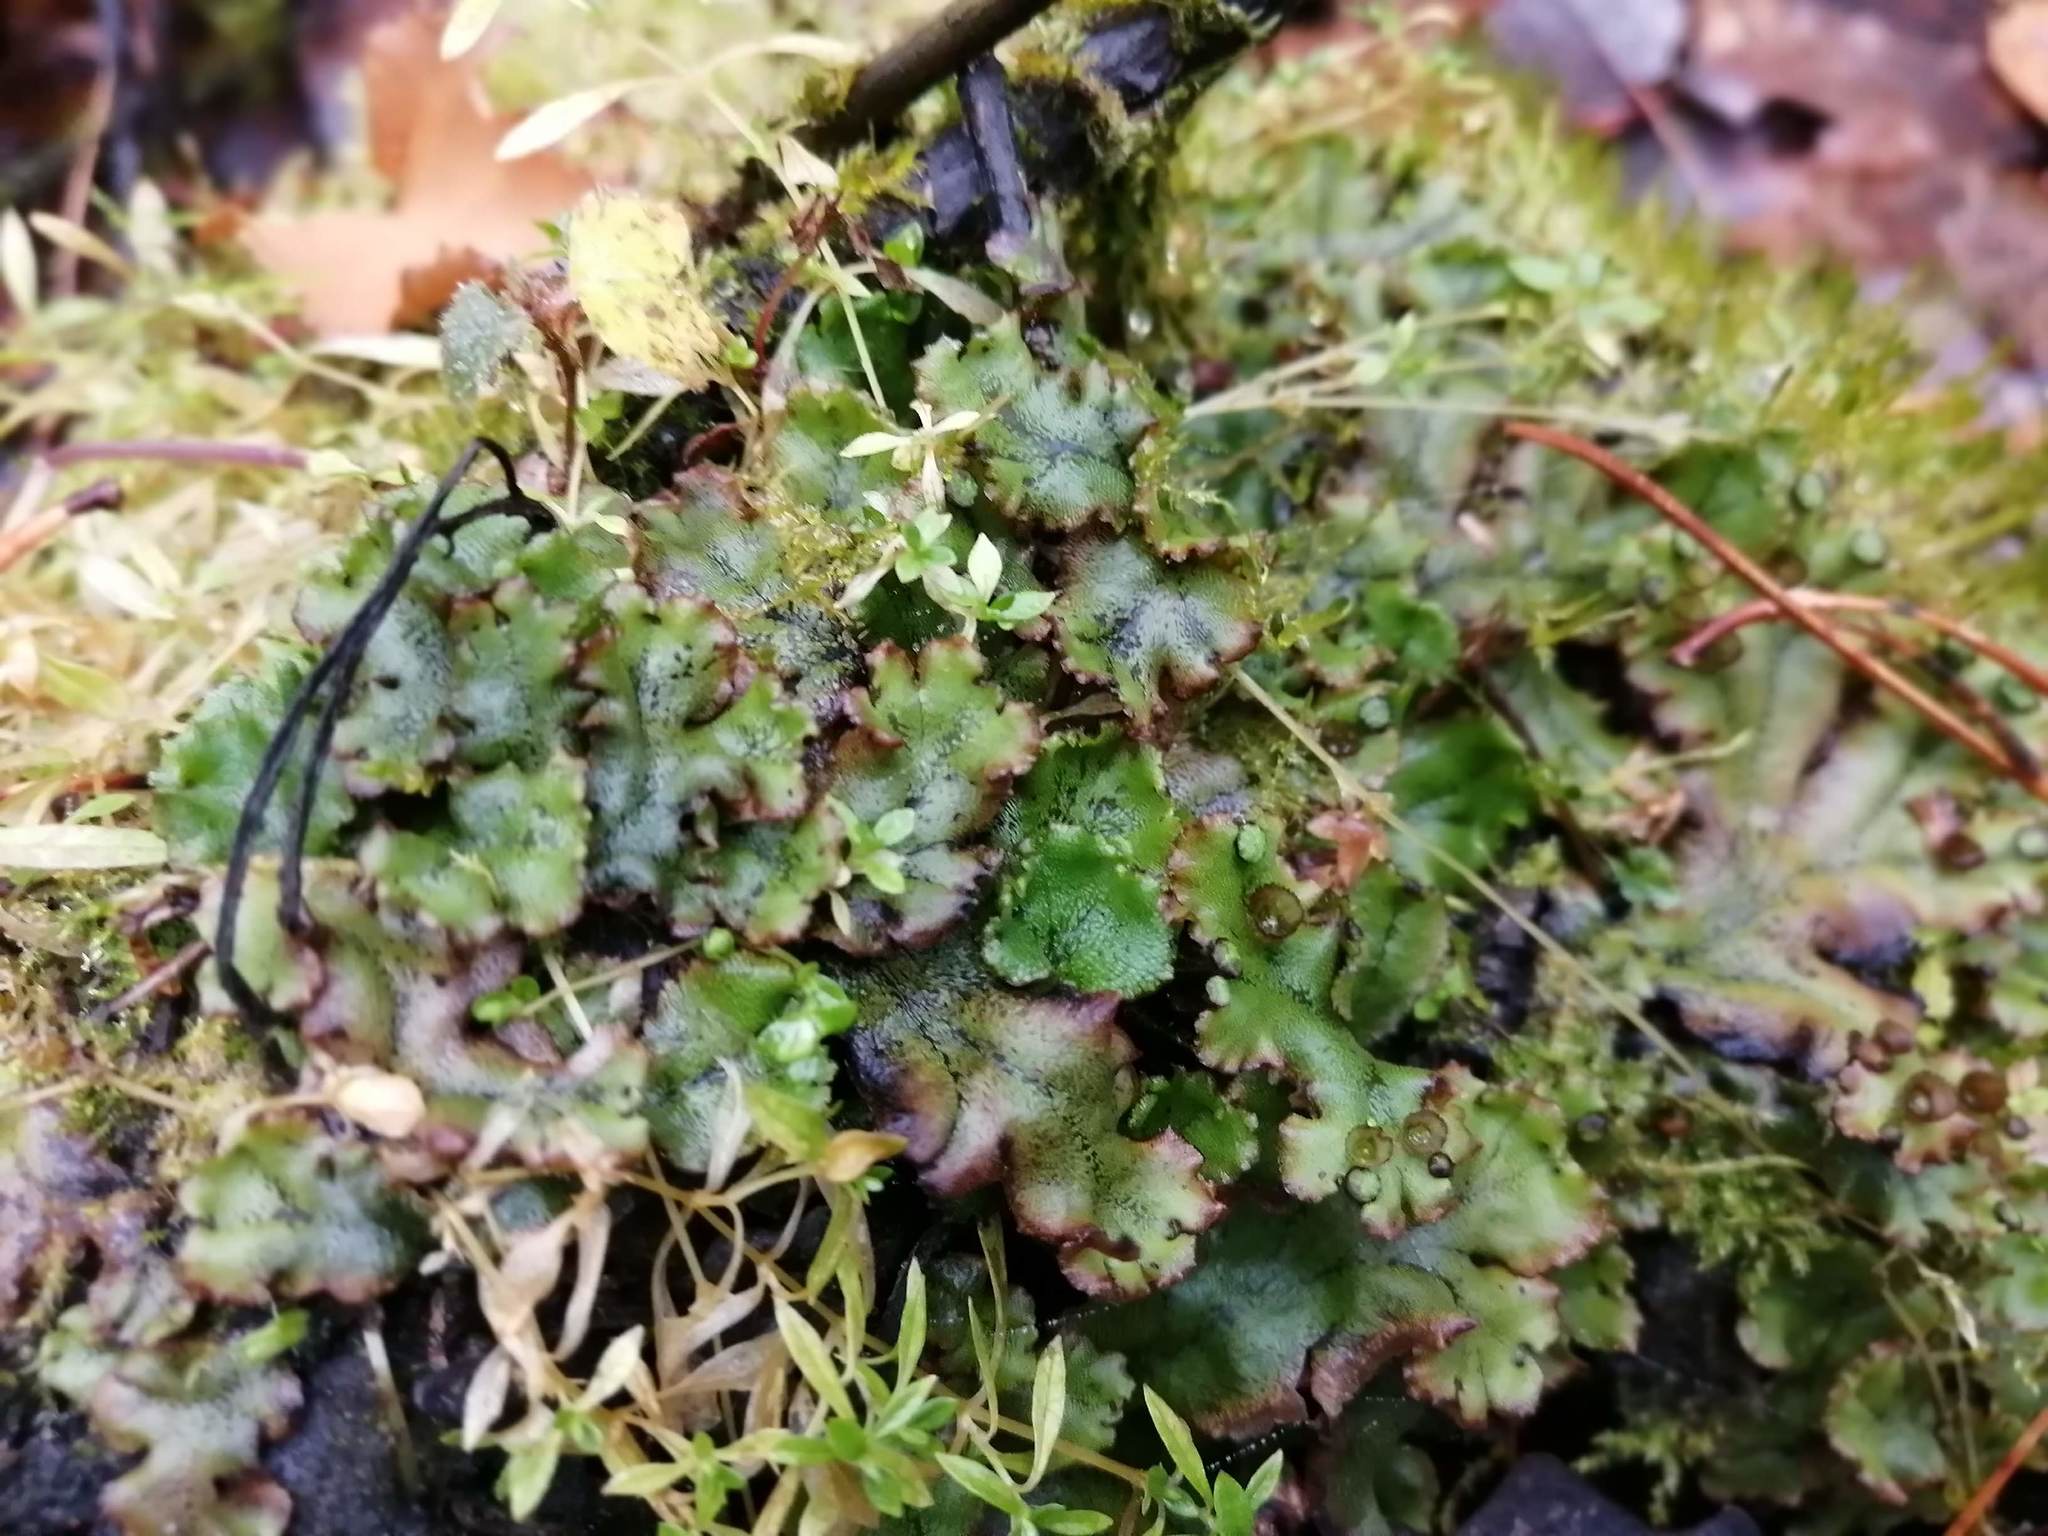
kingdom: Plantae
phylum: Marchantiophyta
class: Marchantiopsida
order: Marchantiales
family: Marchantiaceae
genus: Marchantia
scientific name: Marchantia polymorpha
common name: Common liverwort
